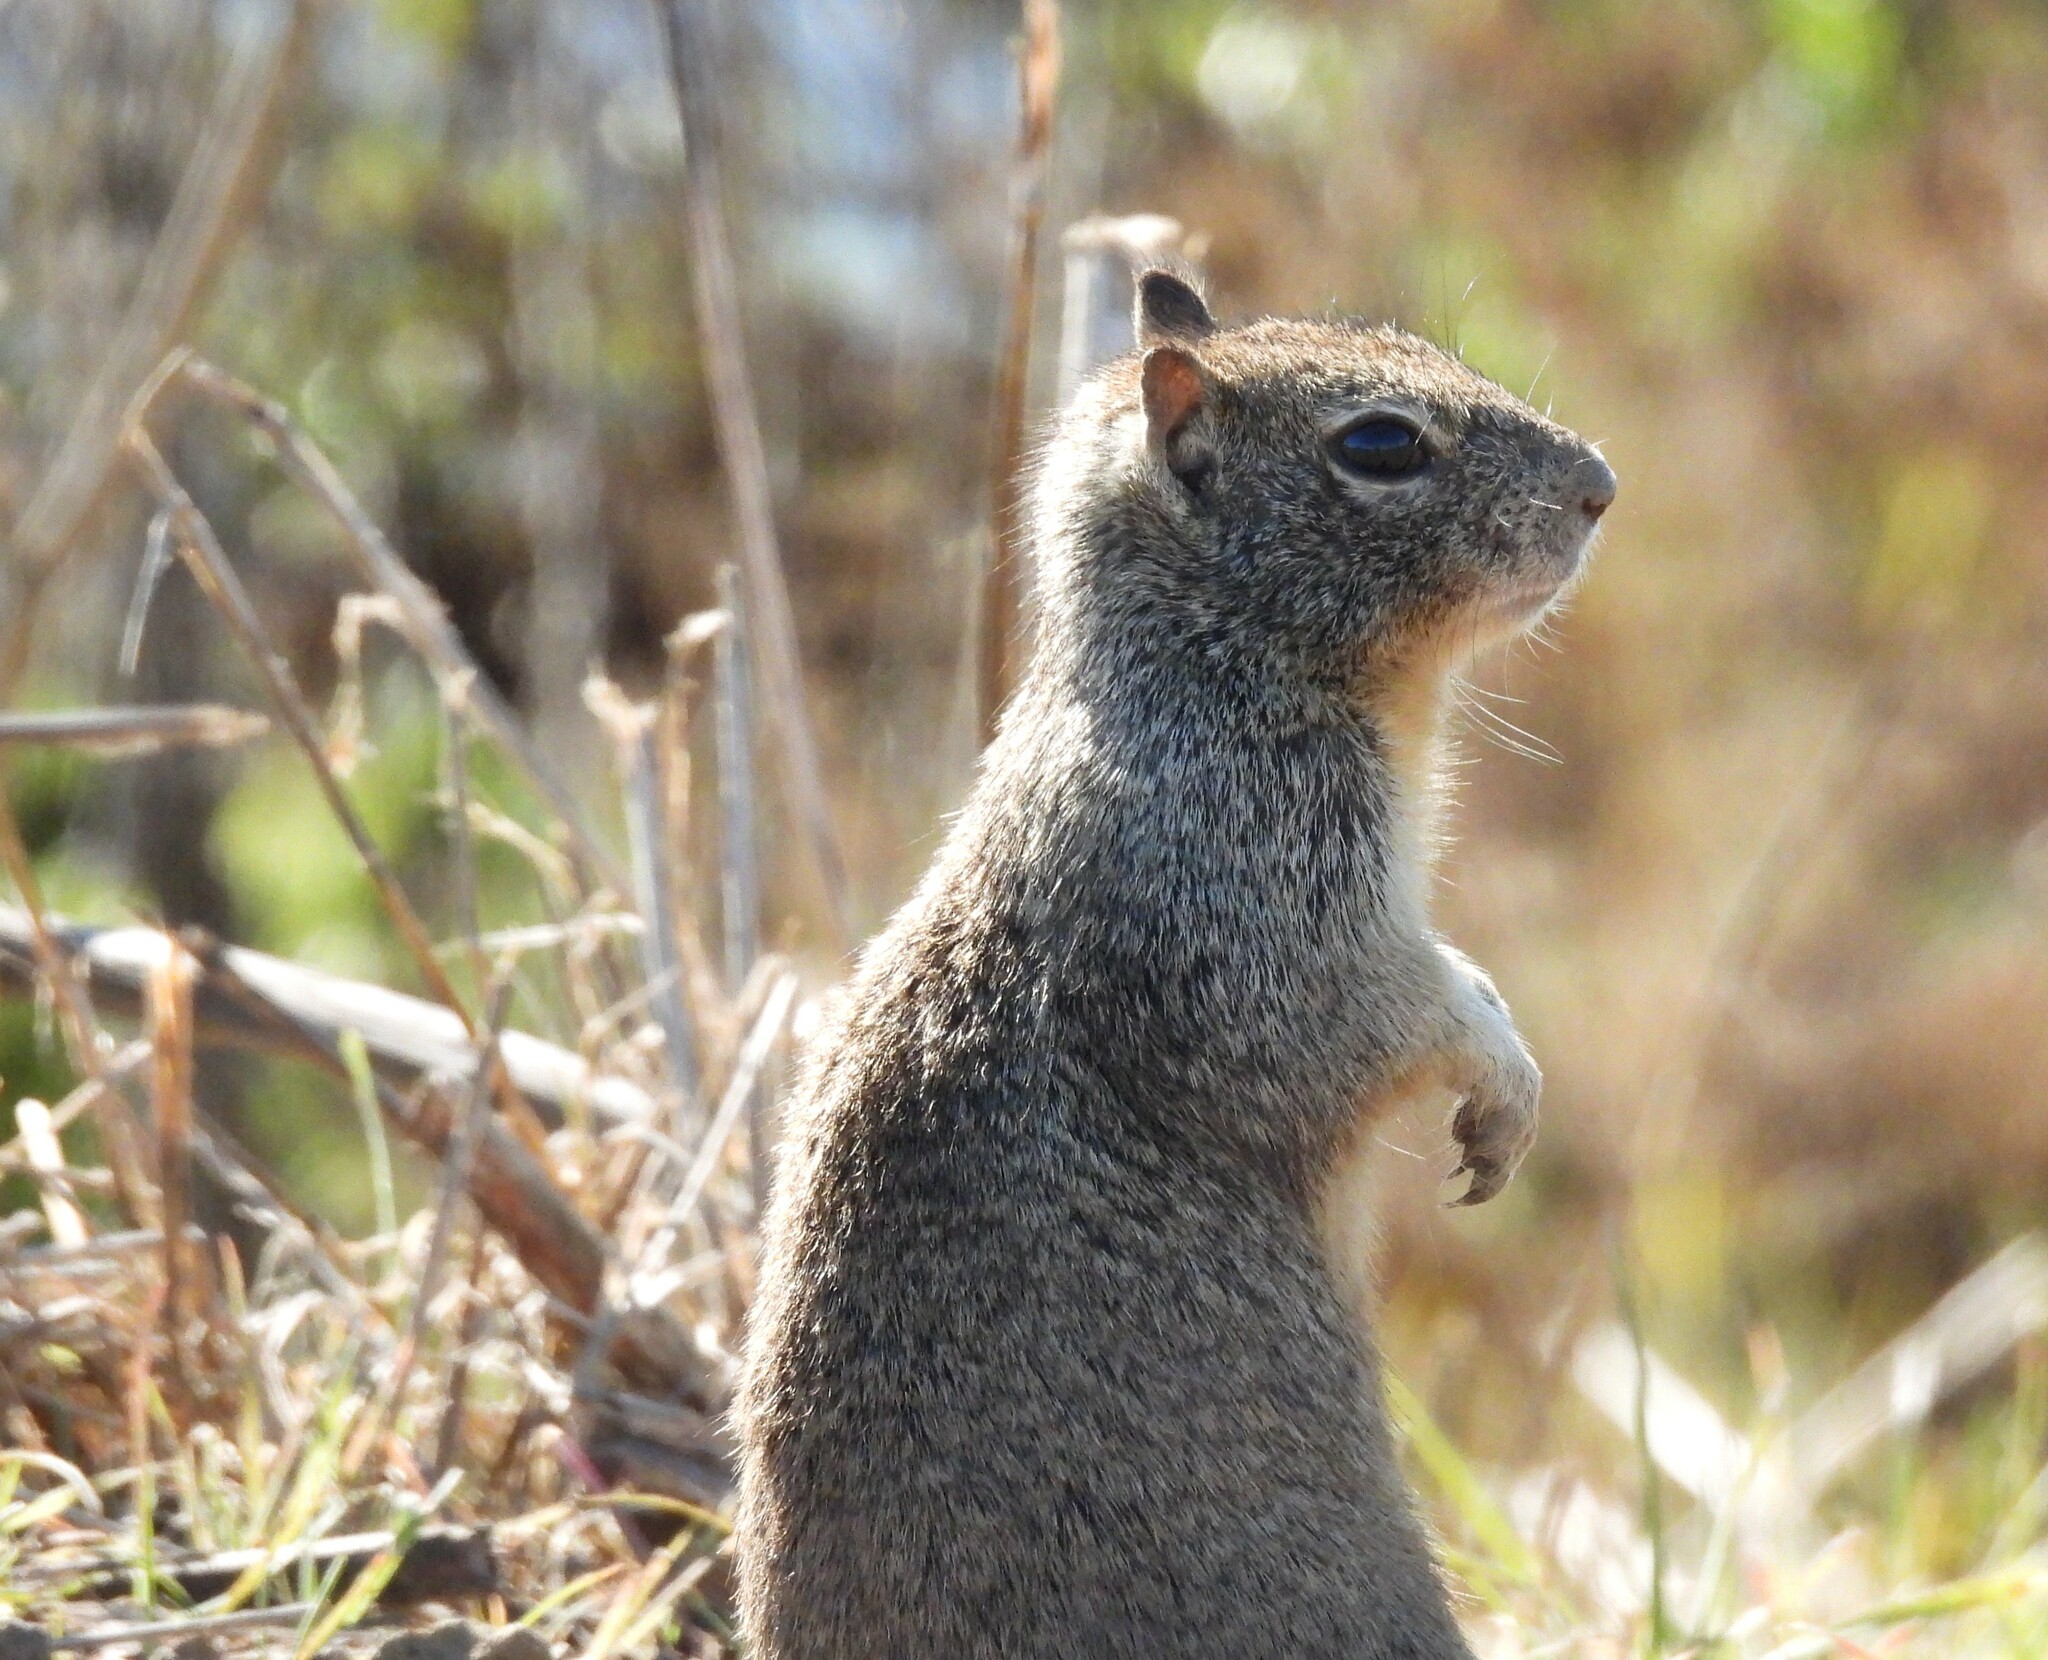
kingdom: Animalia
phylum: Chordata
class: Mammalia
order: Rodentia
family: Sciuridae
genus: Otospermophilus
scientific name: Otospermophilus beecheyi
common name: California ground squirrel
